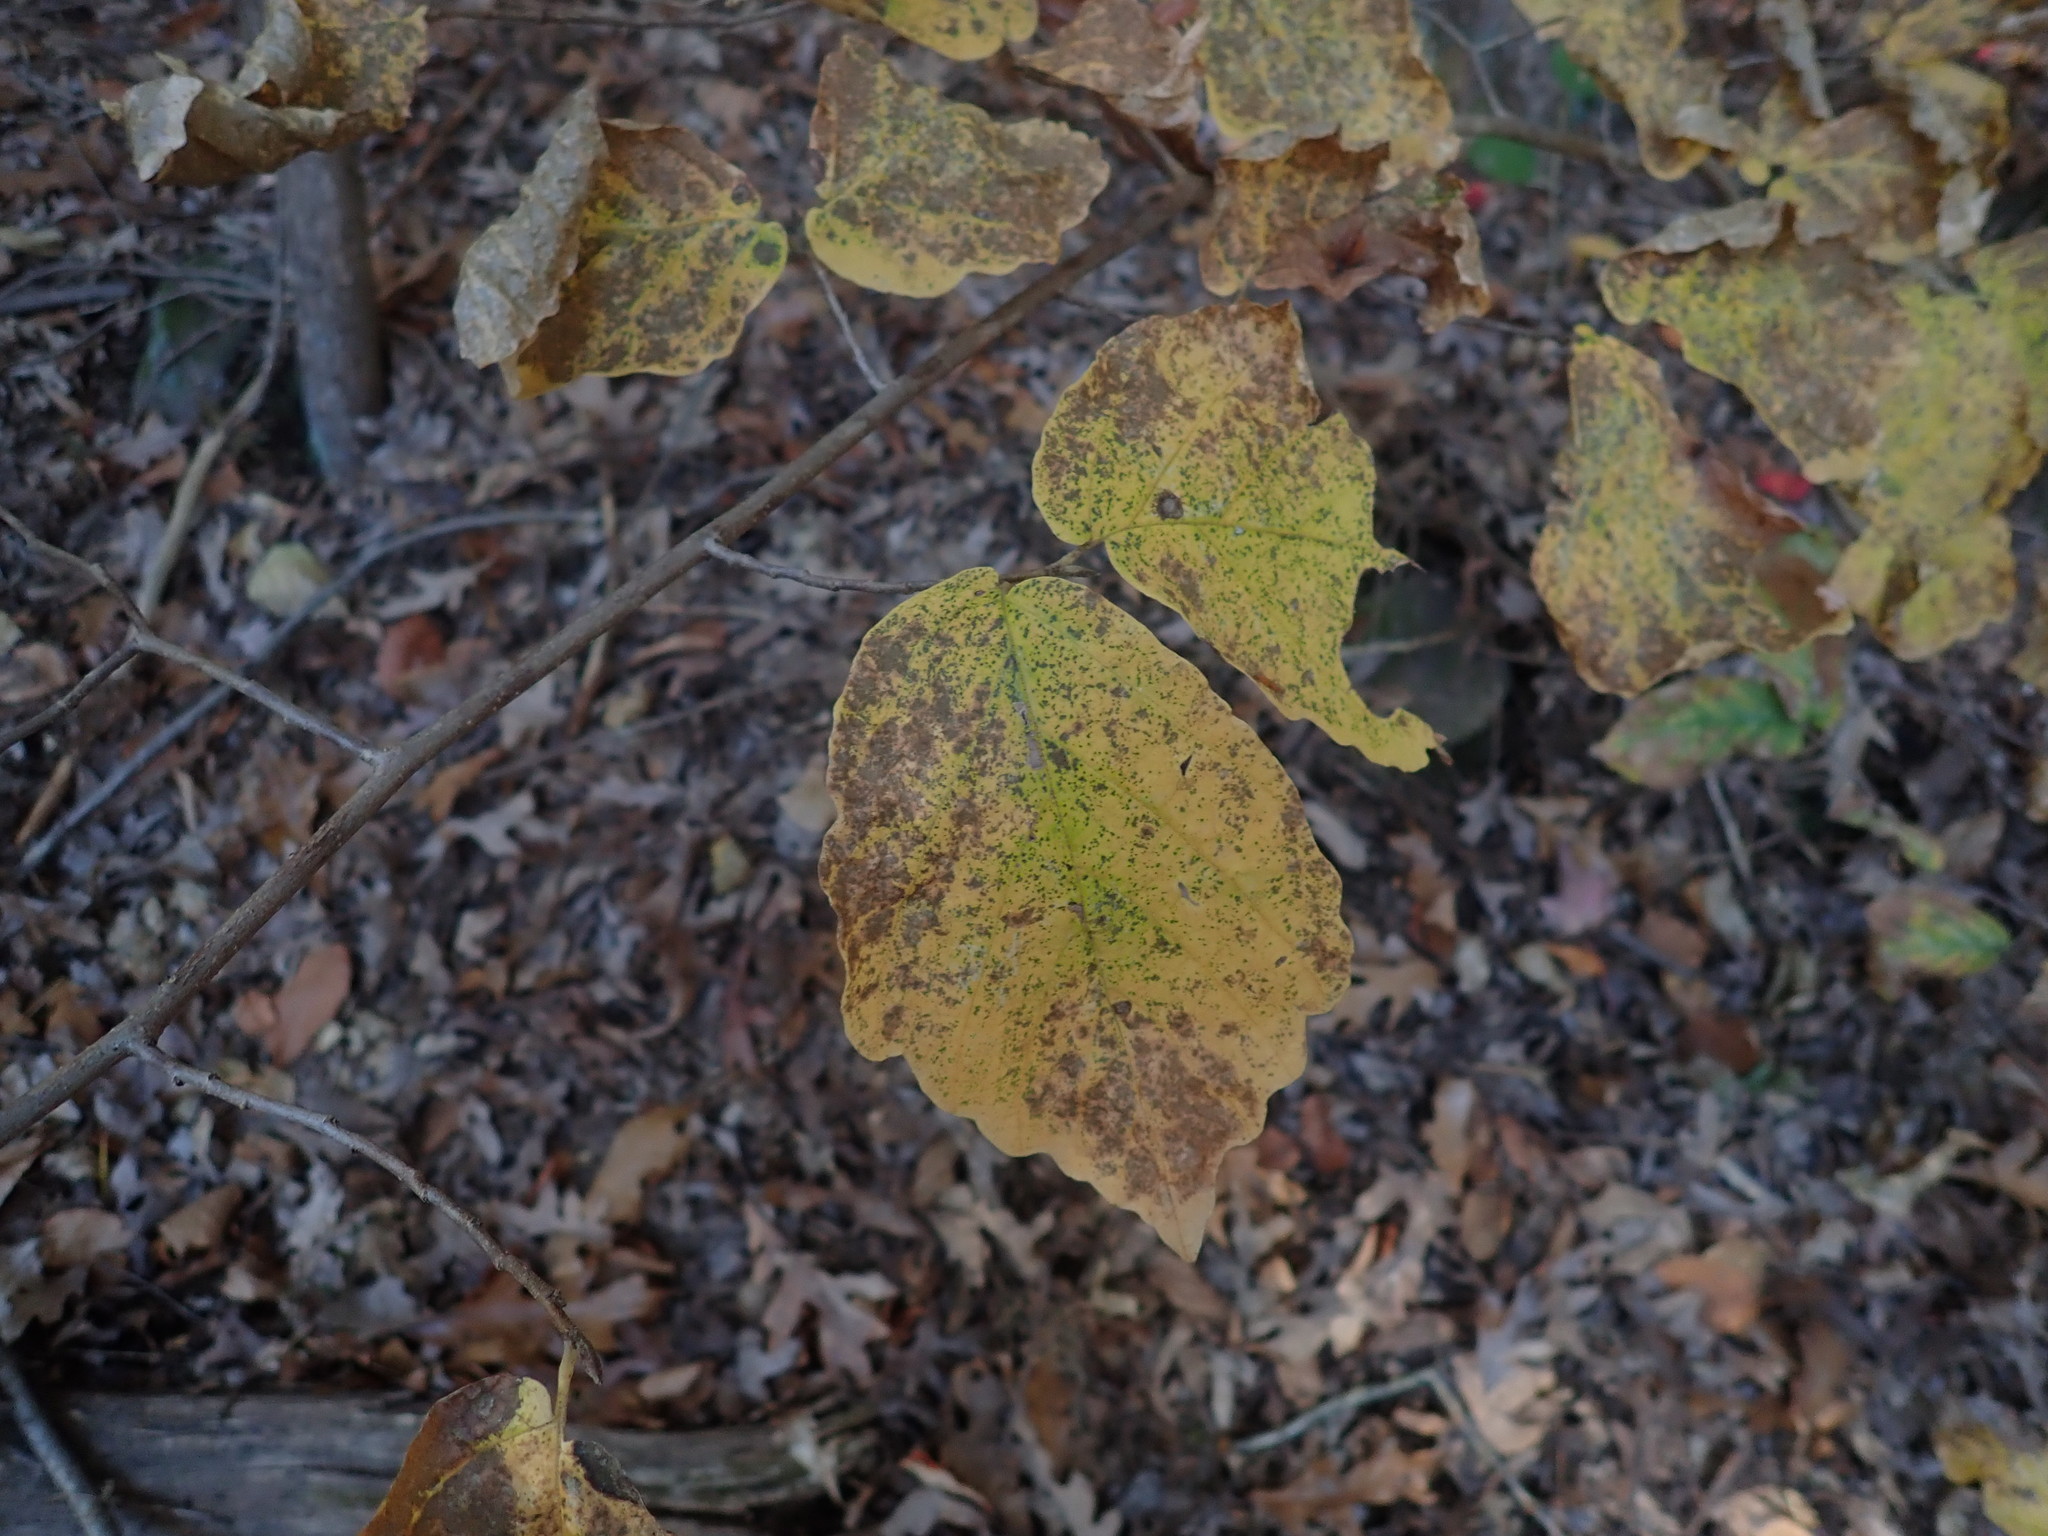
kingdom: Plantae
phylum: Tracheophyta
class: Magnoliopsida
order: Saxifragales
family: Hamamelidaceae
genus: Hamamelis
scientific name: Hamamelis virginiana
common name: Witch-hazel
